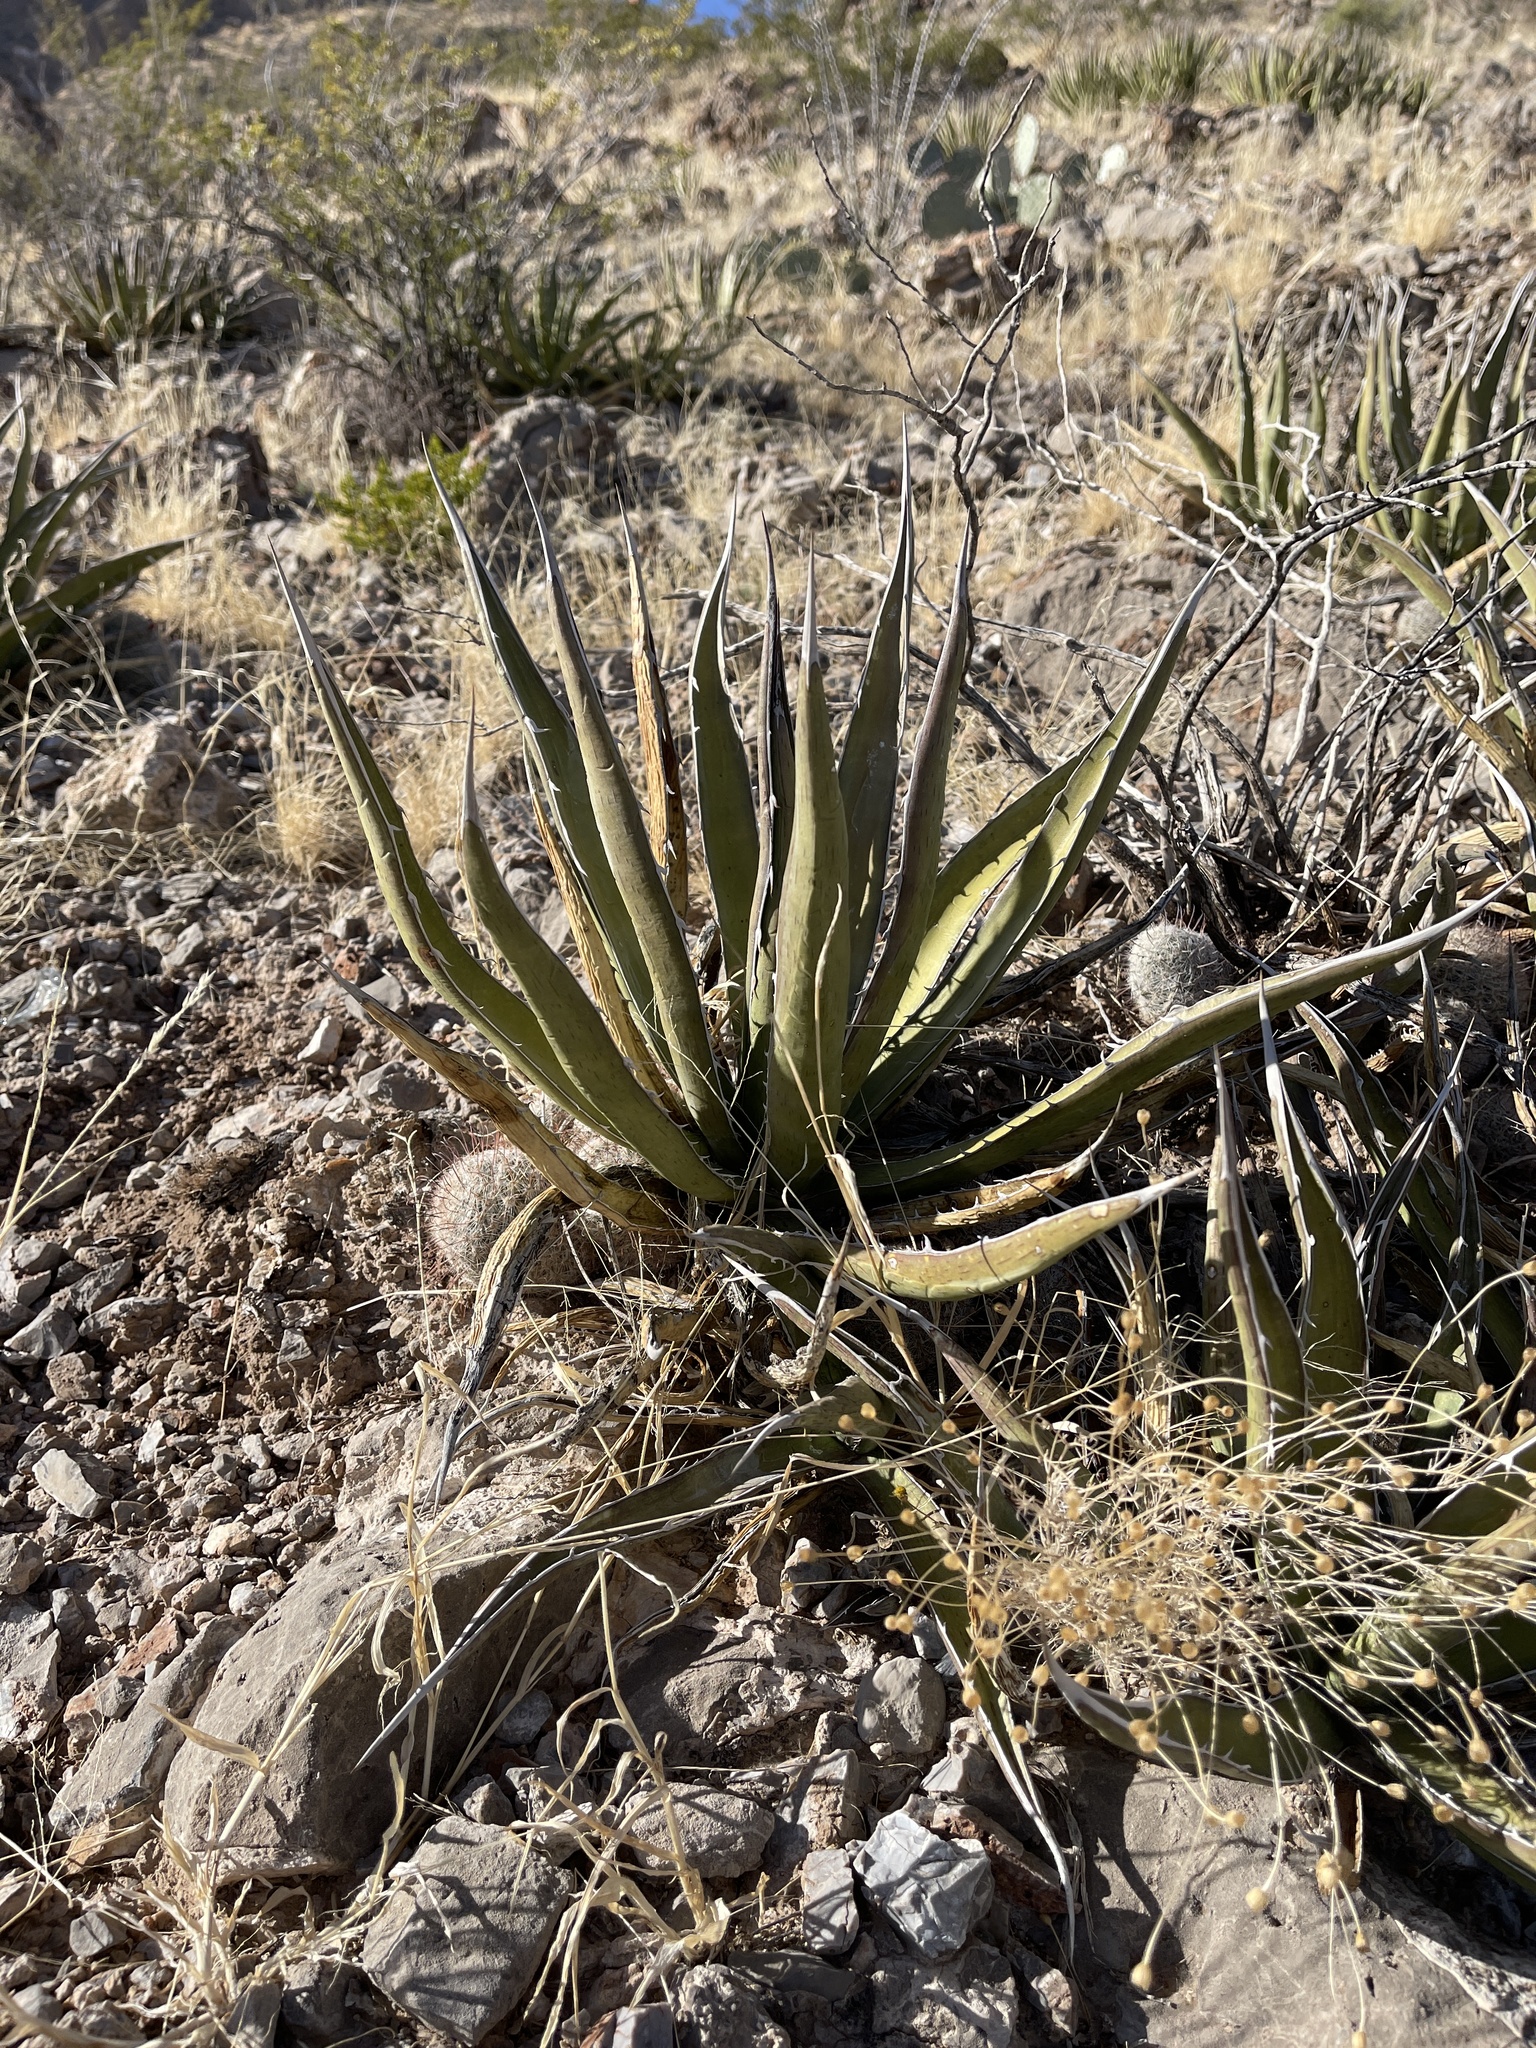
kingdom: Plantae
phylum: Tracheophyta
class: Liliopsida
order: Asparagales
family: Asparagaceae
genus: Agave
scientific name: Agave lechuguilla
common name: Lecheguilla agave
